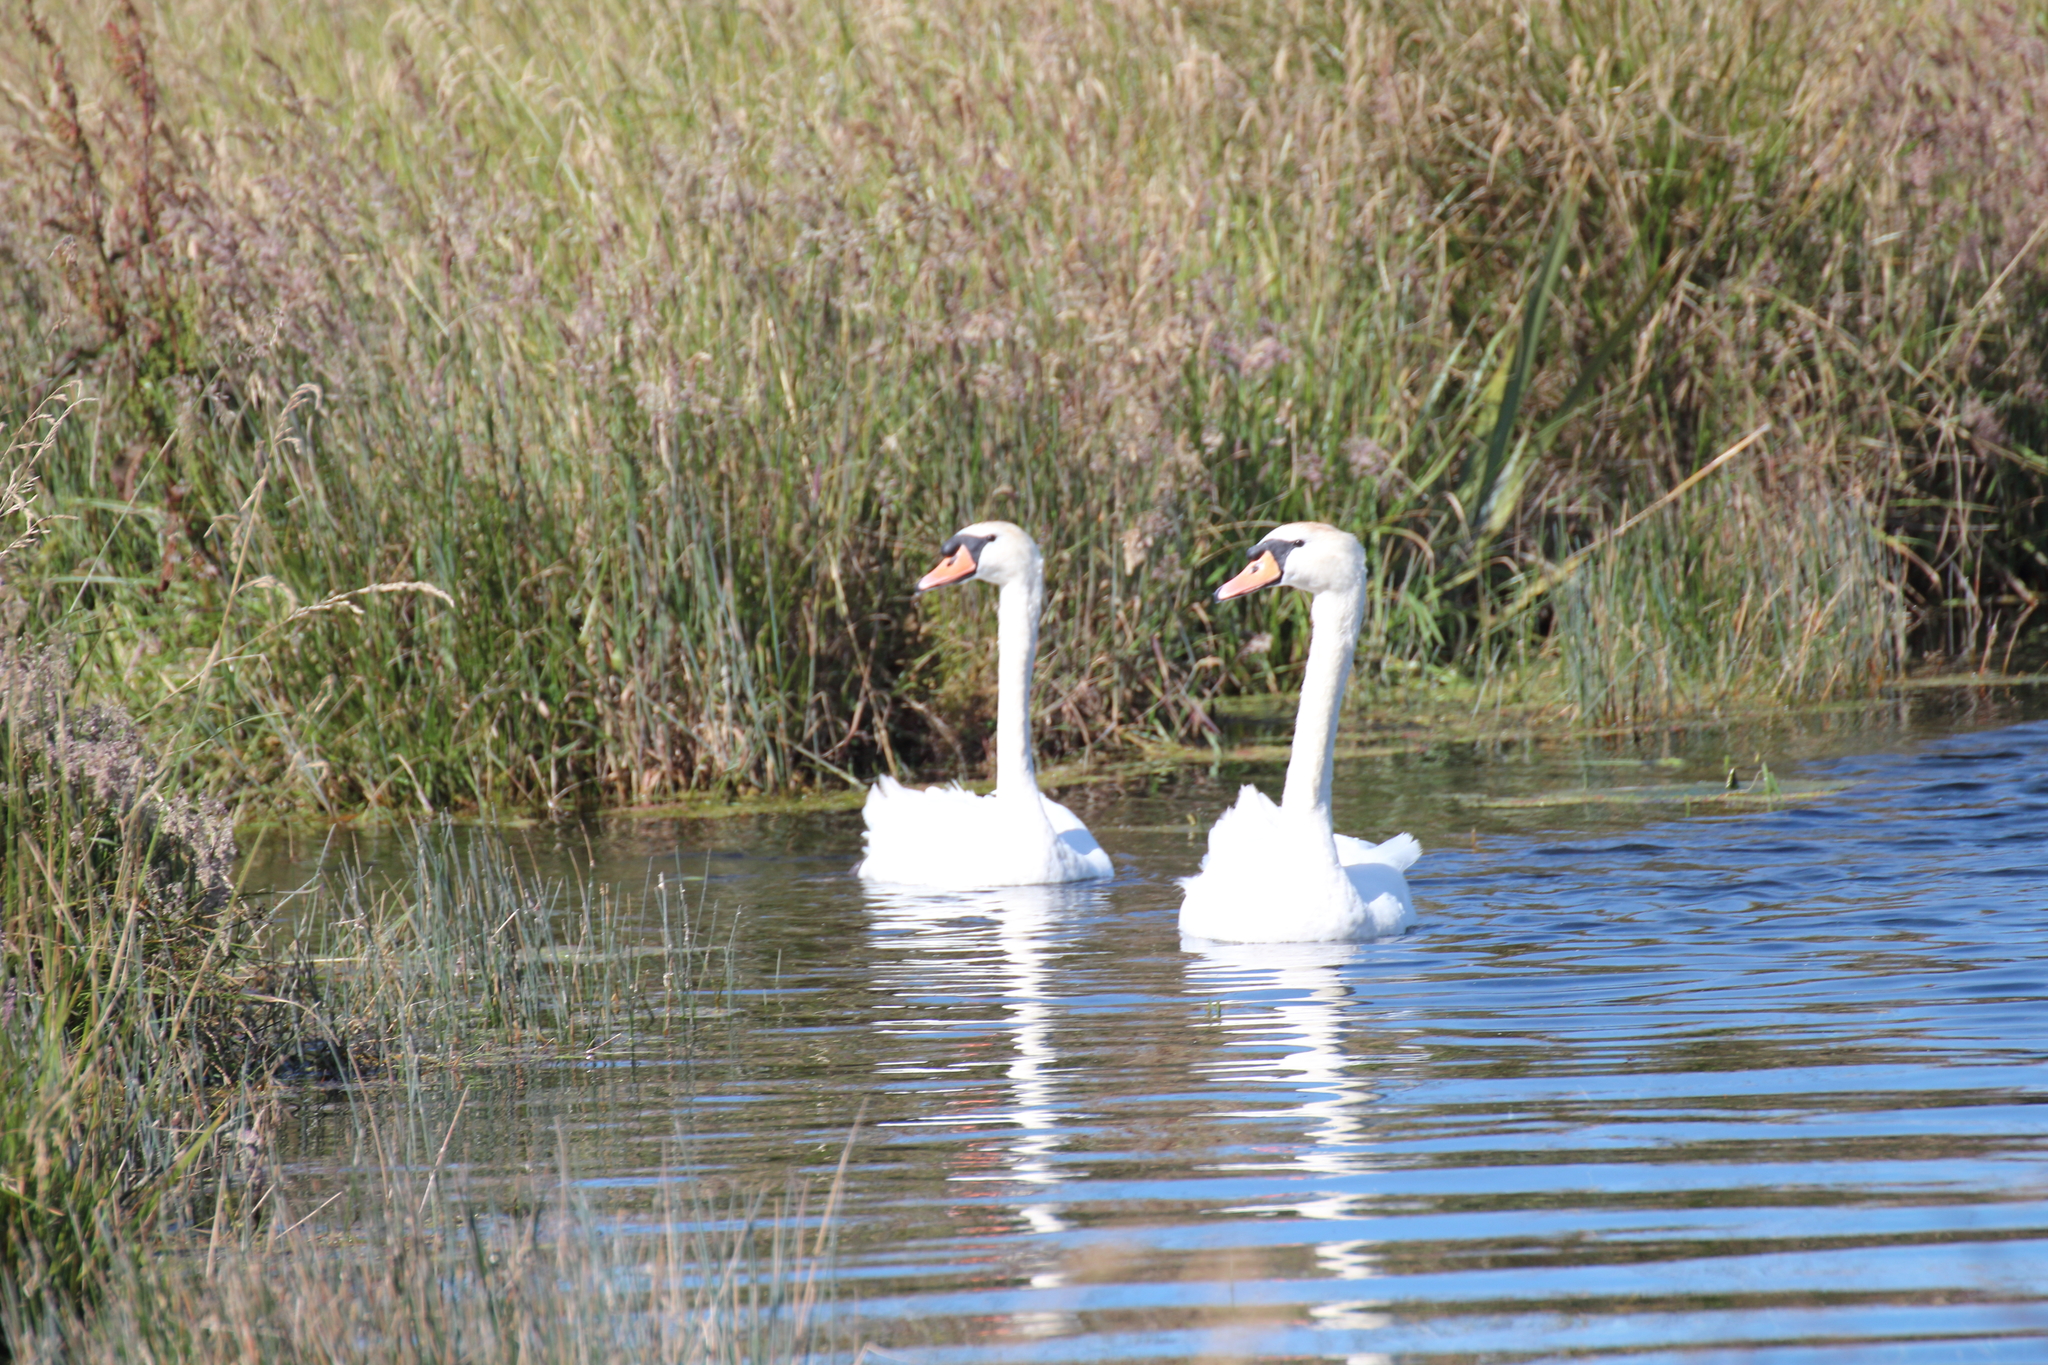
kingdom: Animalia
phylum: Chordata
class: Aves
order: Anseriformes
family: Anatidae
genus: Cygnus
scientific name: Cygnus olor
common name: Mute swan
